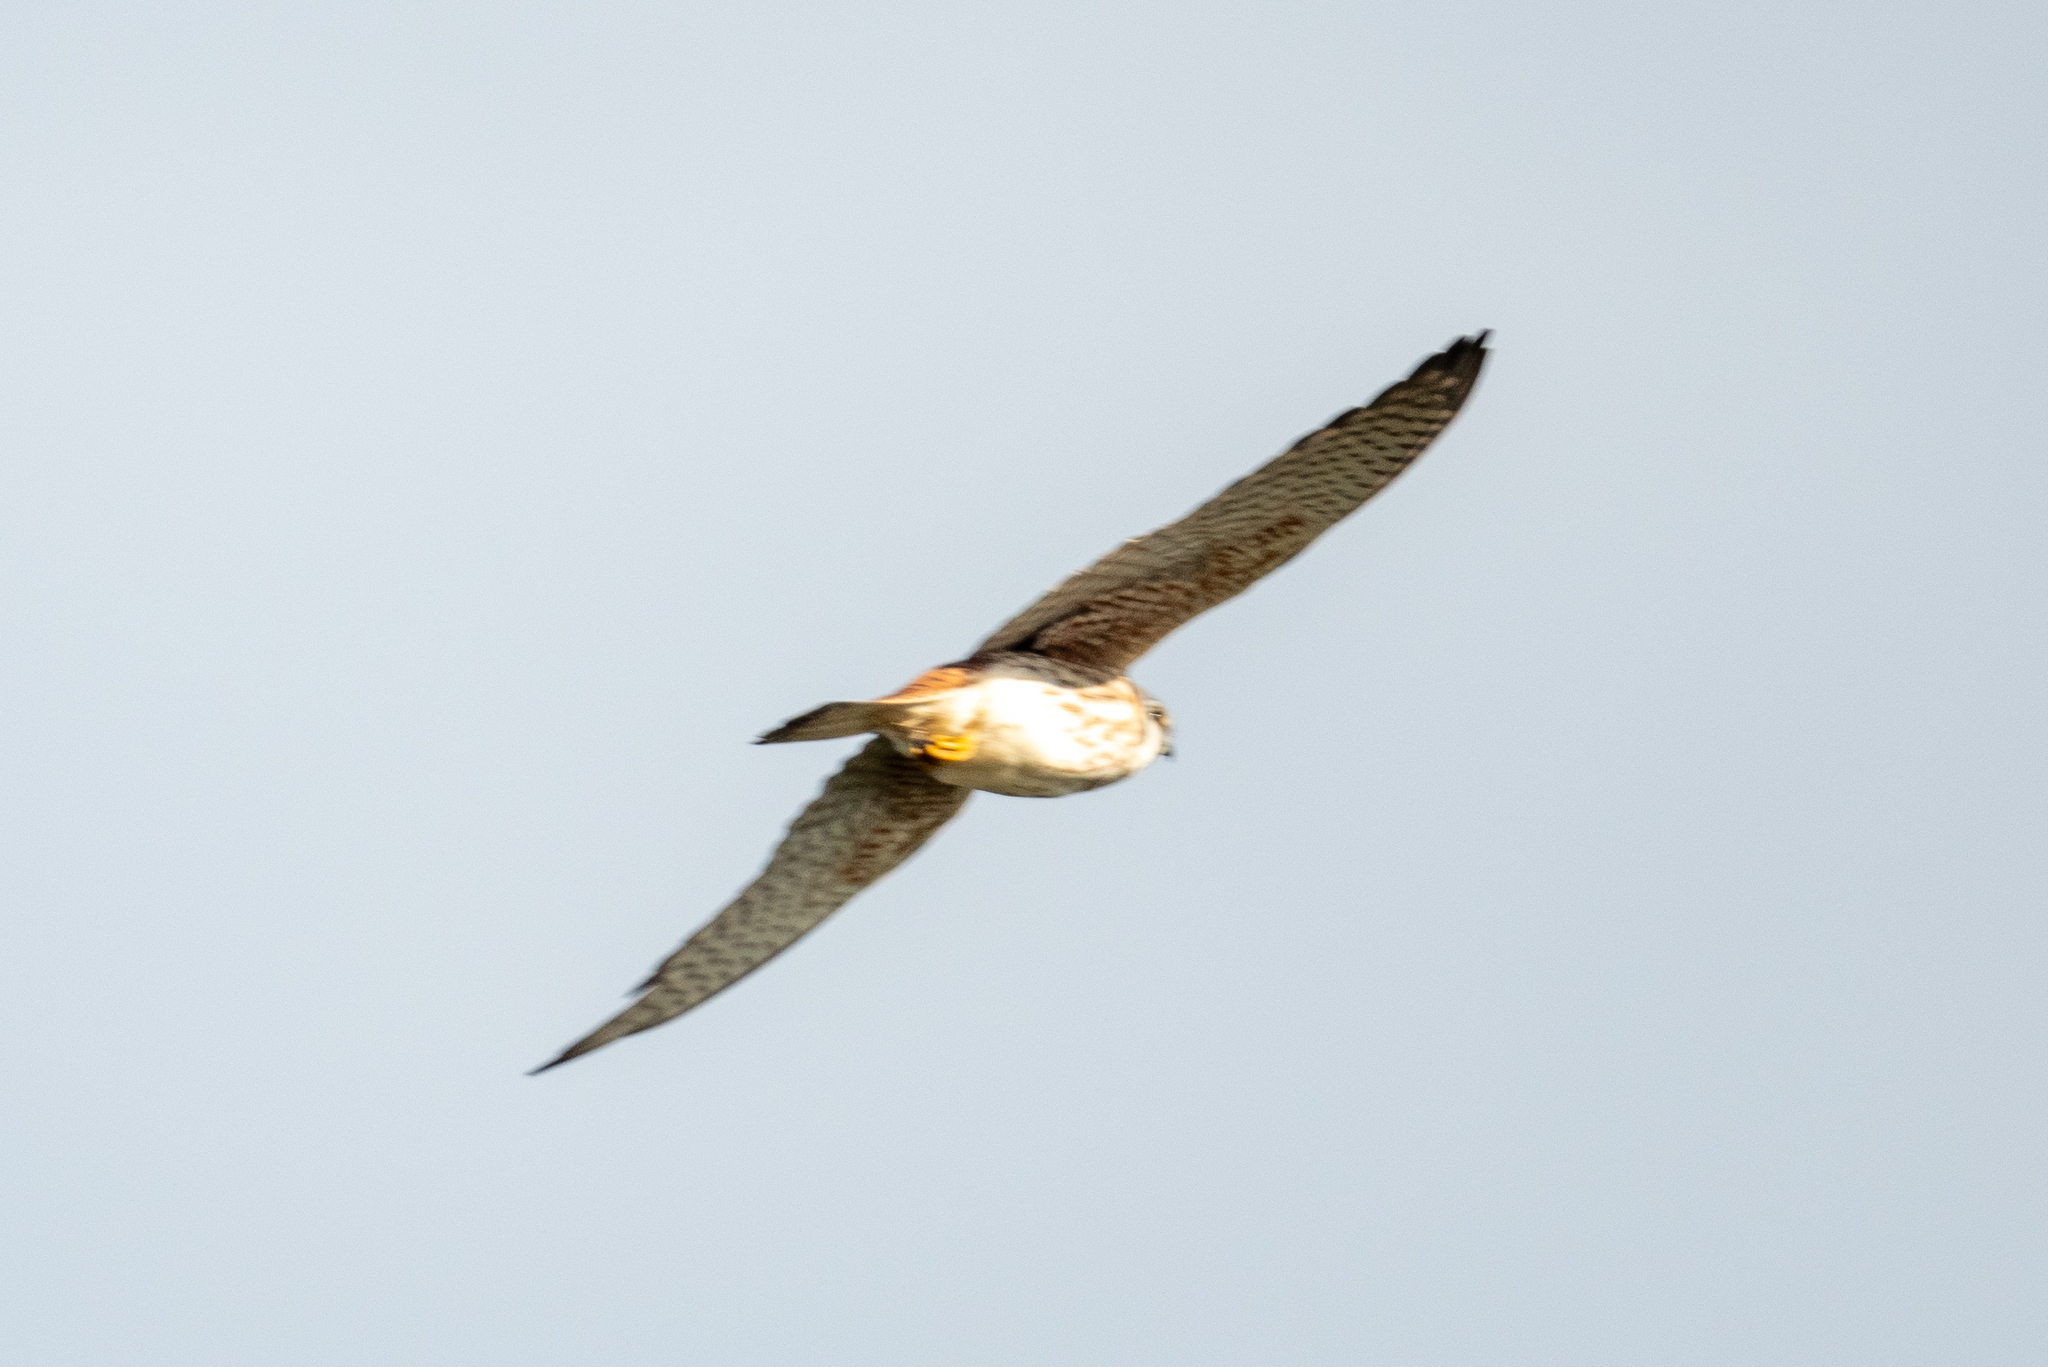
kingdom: Animalia
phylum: Chordata
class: Aves
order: Falconiformes
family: Falconidae
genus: Falco
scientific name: Falco sparverius
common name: American kestrel
